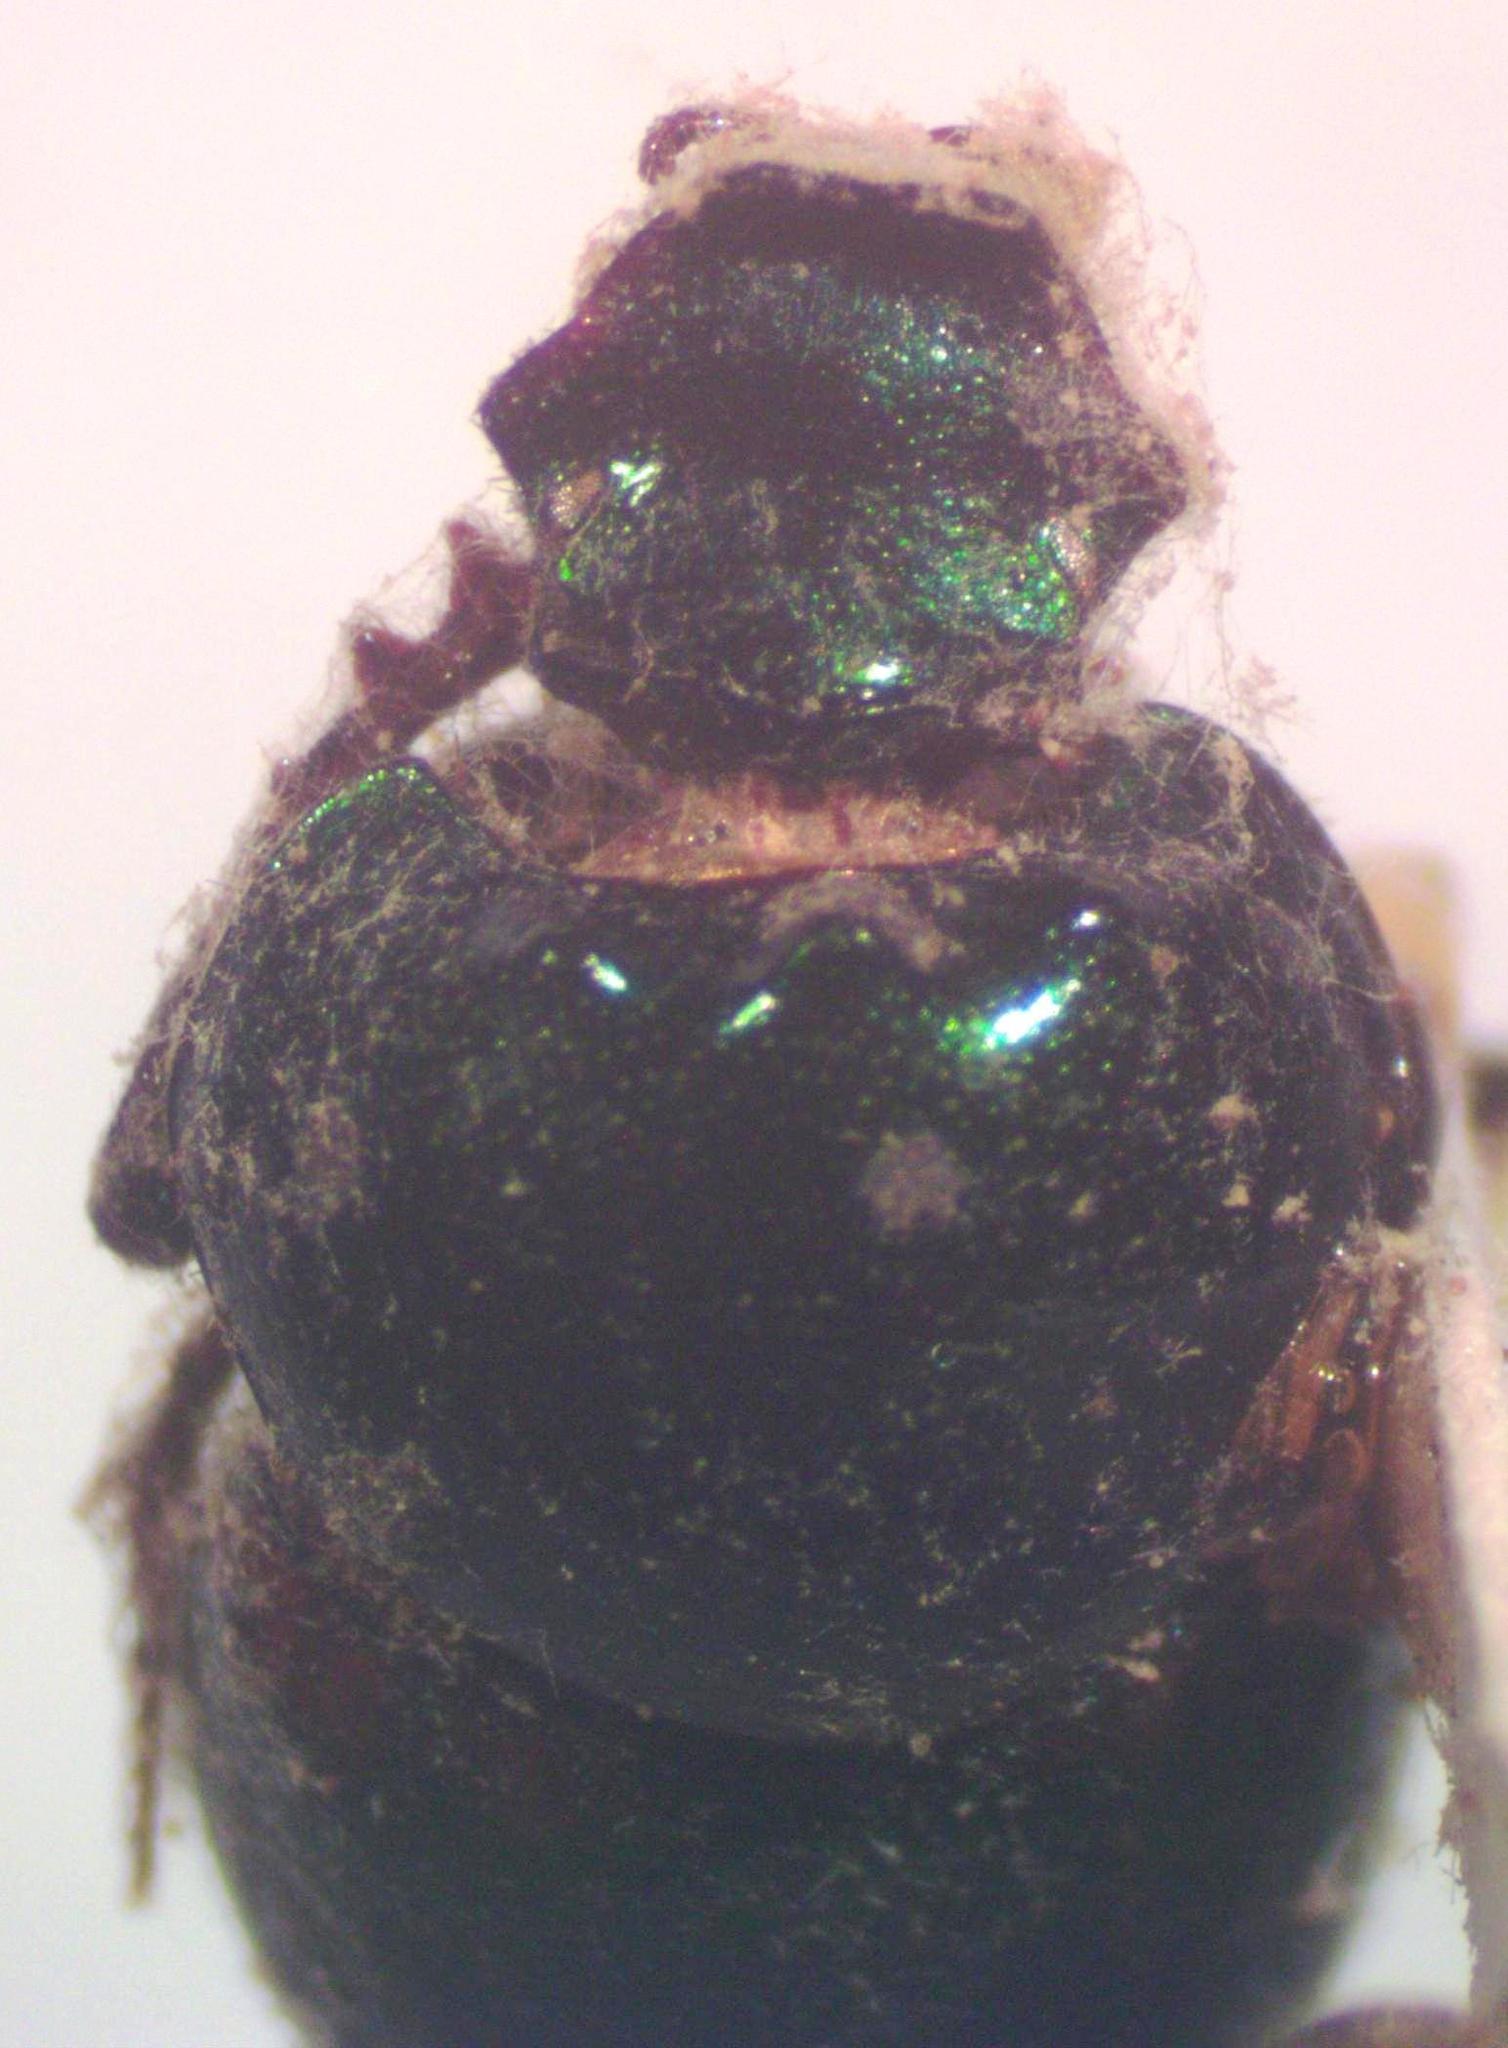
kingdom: Animalia
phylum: Arthropoda
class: Insecta
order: Coleoptera
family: Scarabaeidae
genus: Onthophagus
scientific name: Onthophagus chryses
